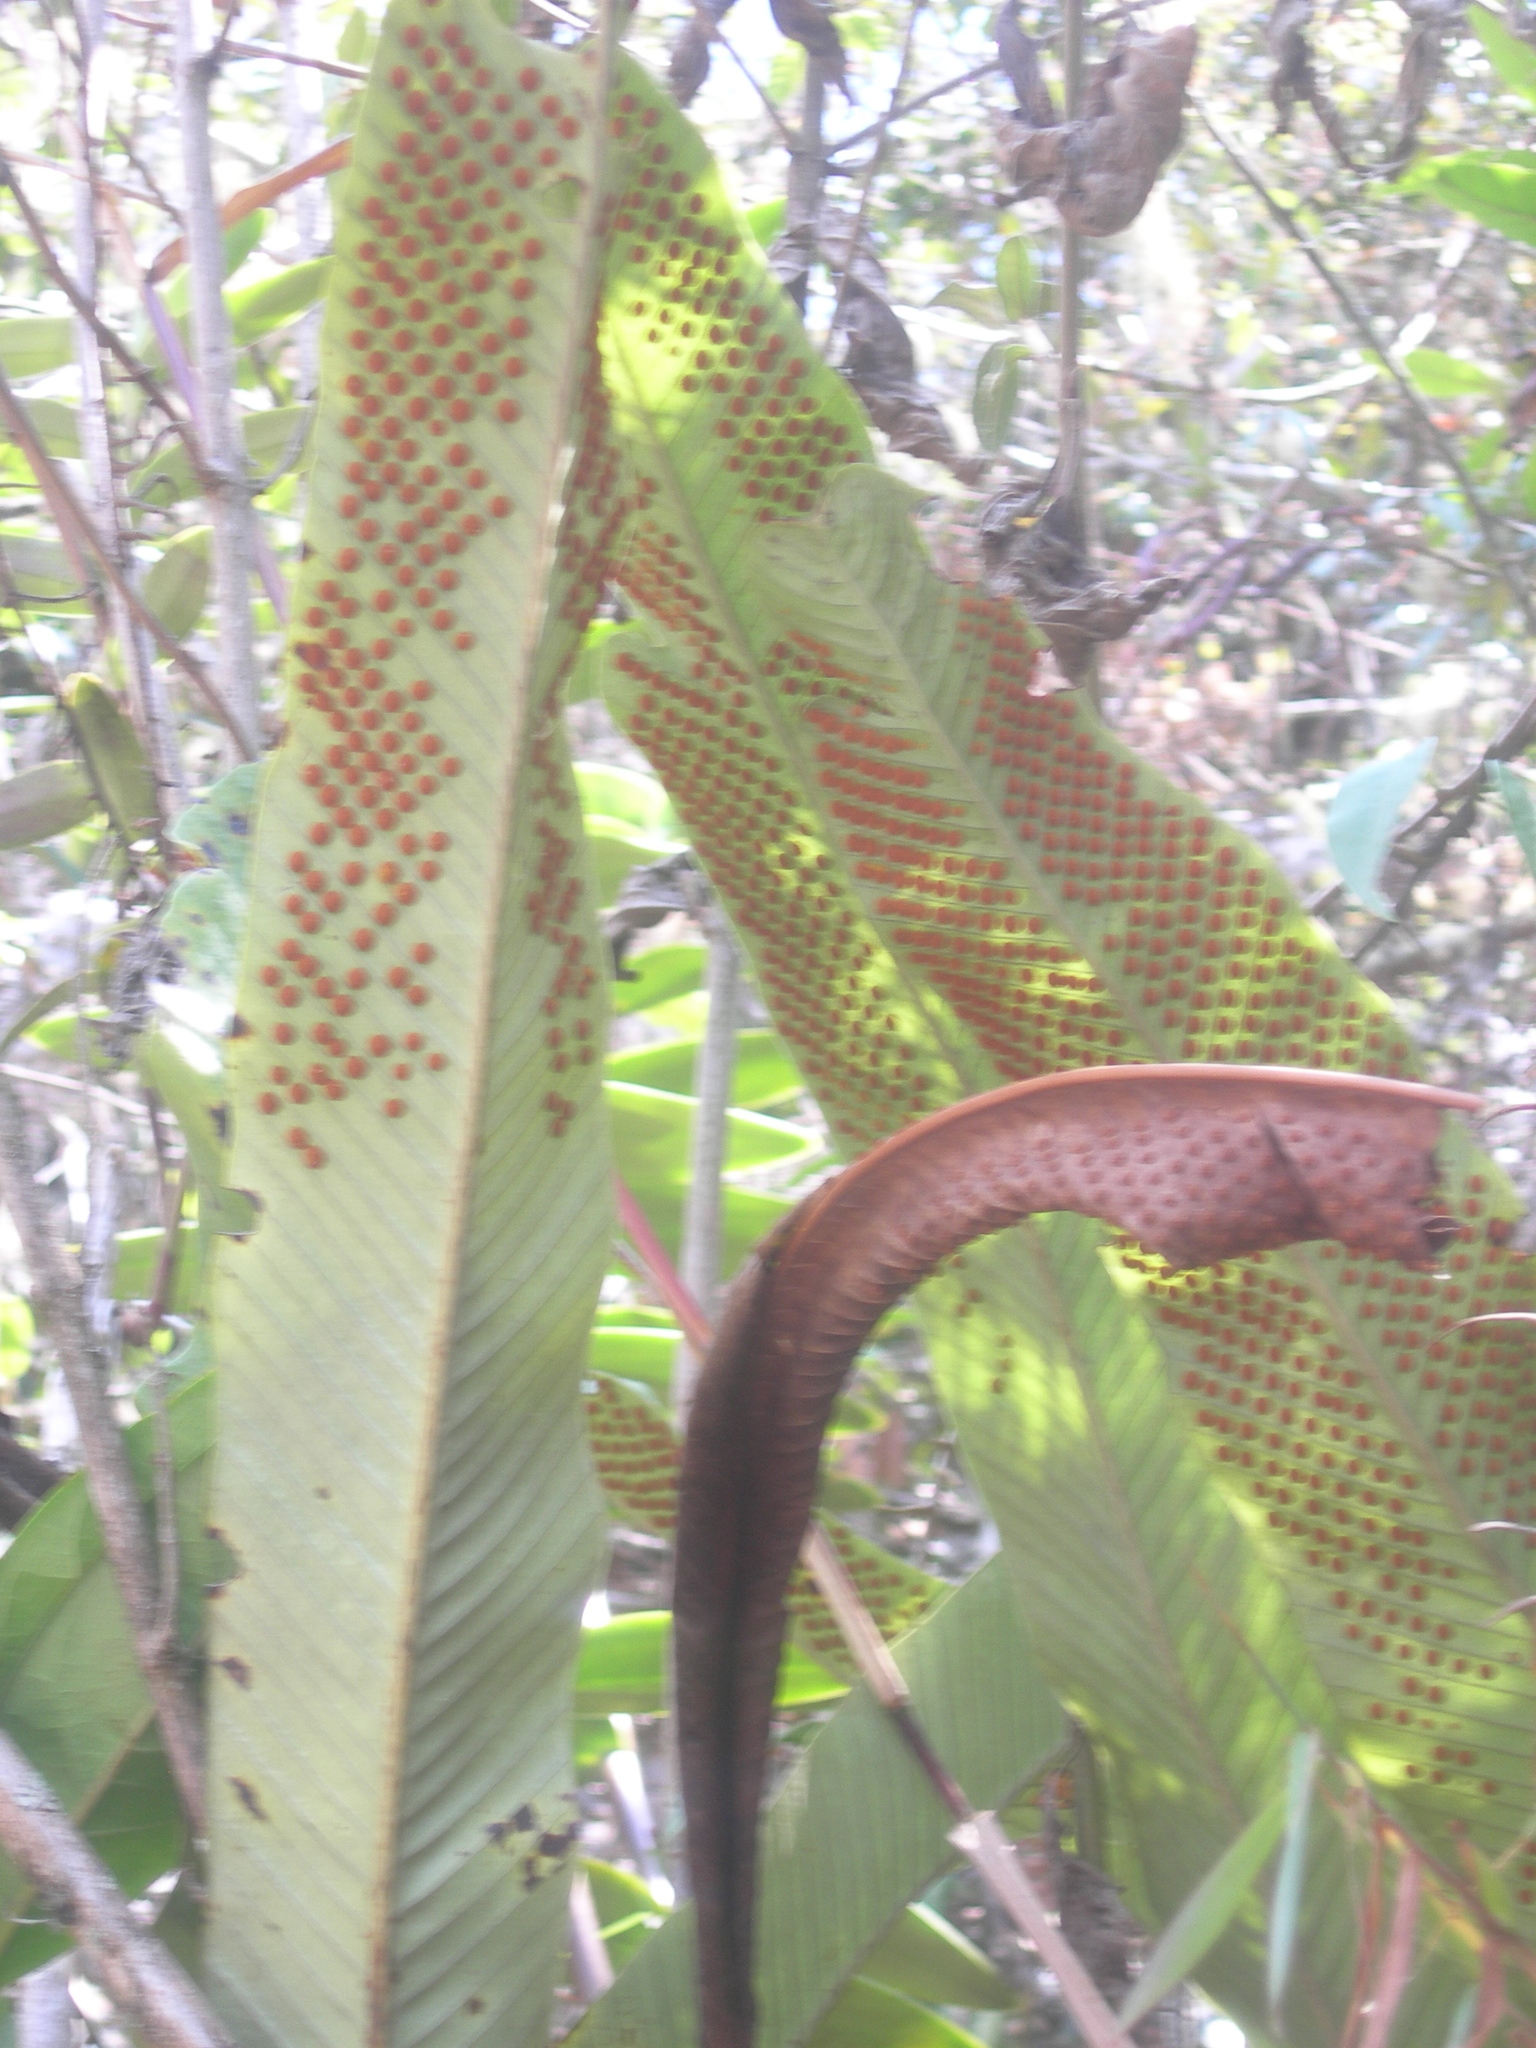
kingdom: Plantae
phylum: Tracheophyta
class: Polypodiopsida
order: Polypodiales
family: Polypodiaceae
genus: Niphidium
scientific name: Niphidium crassifolium
